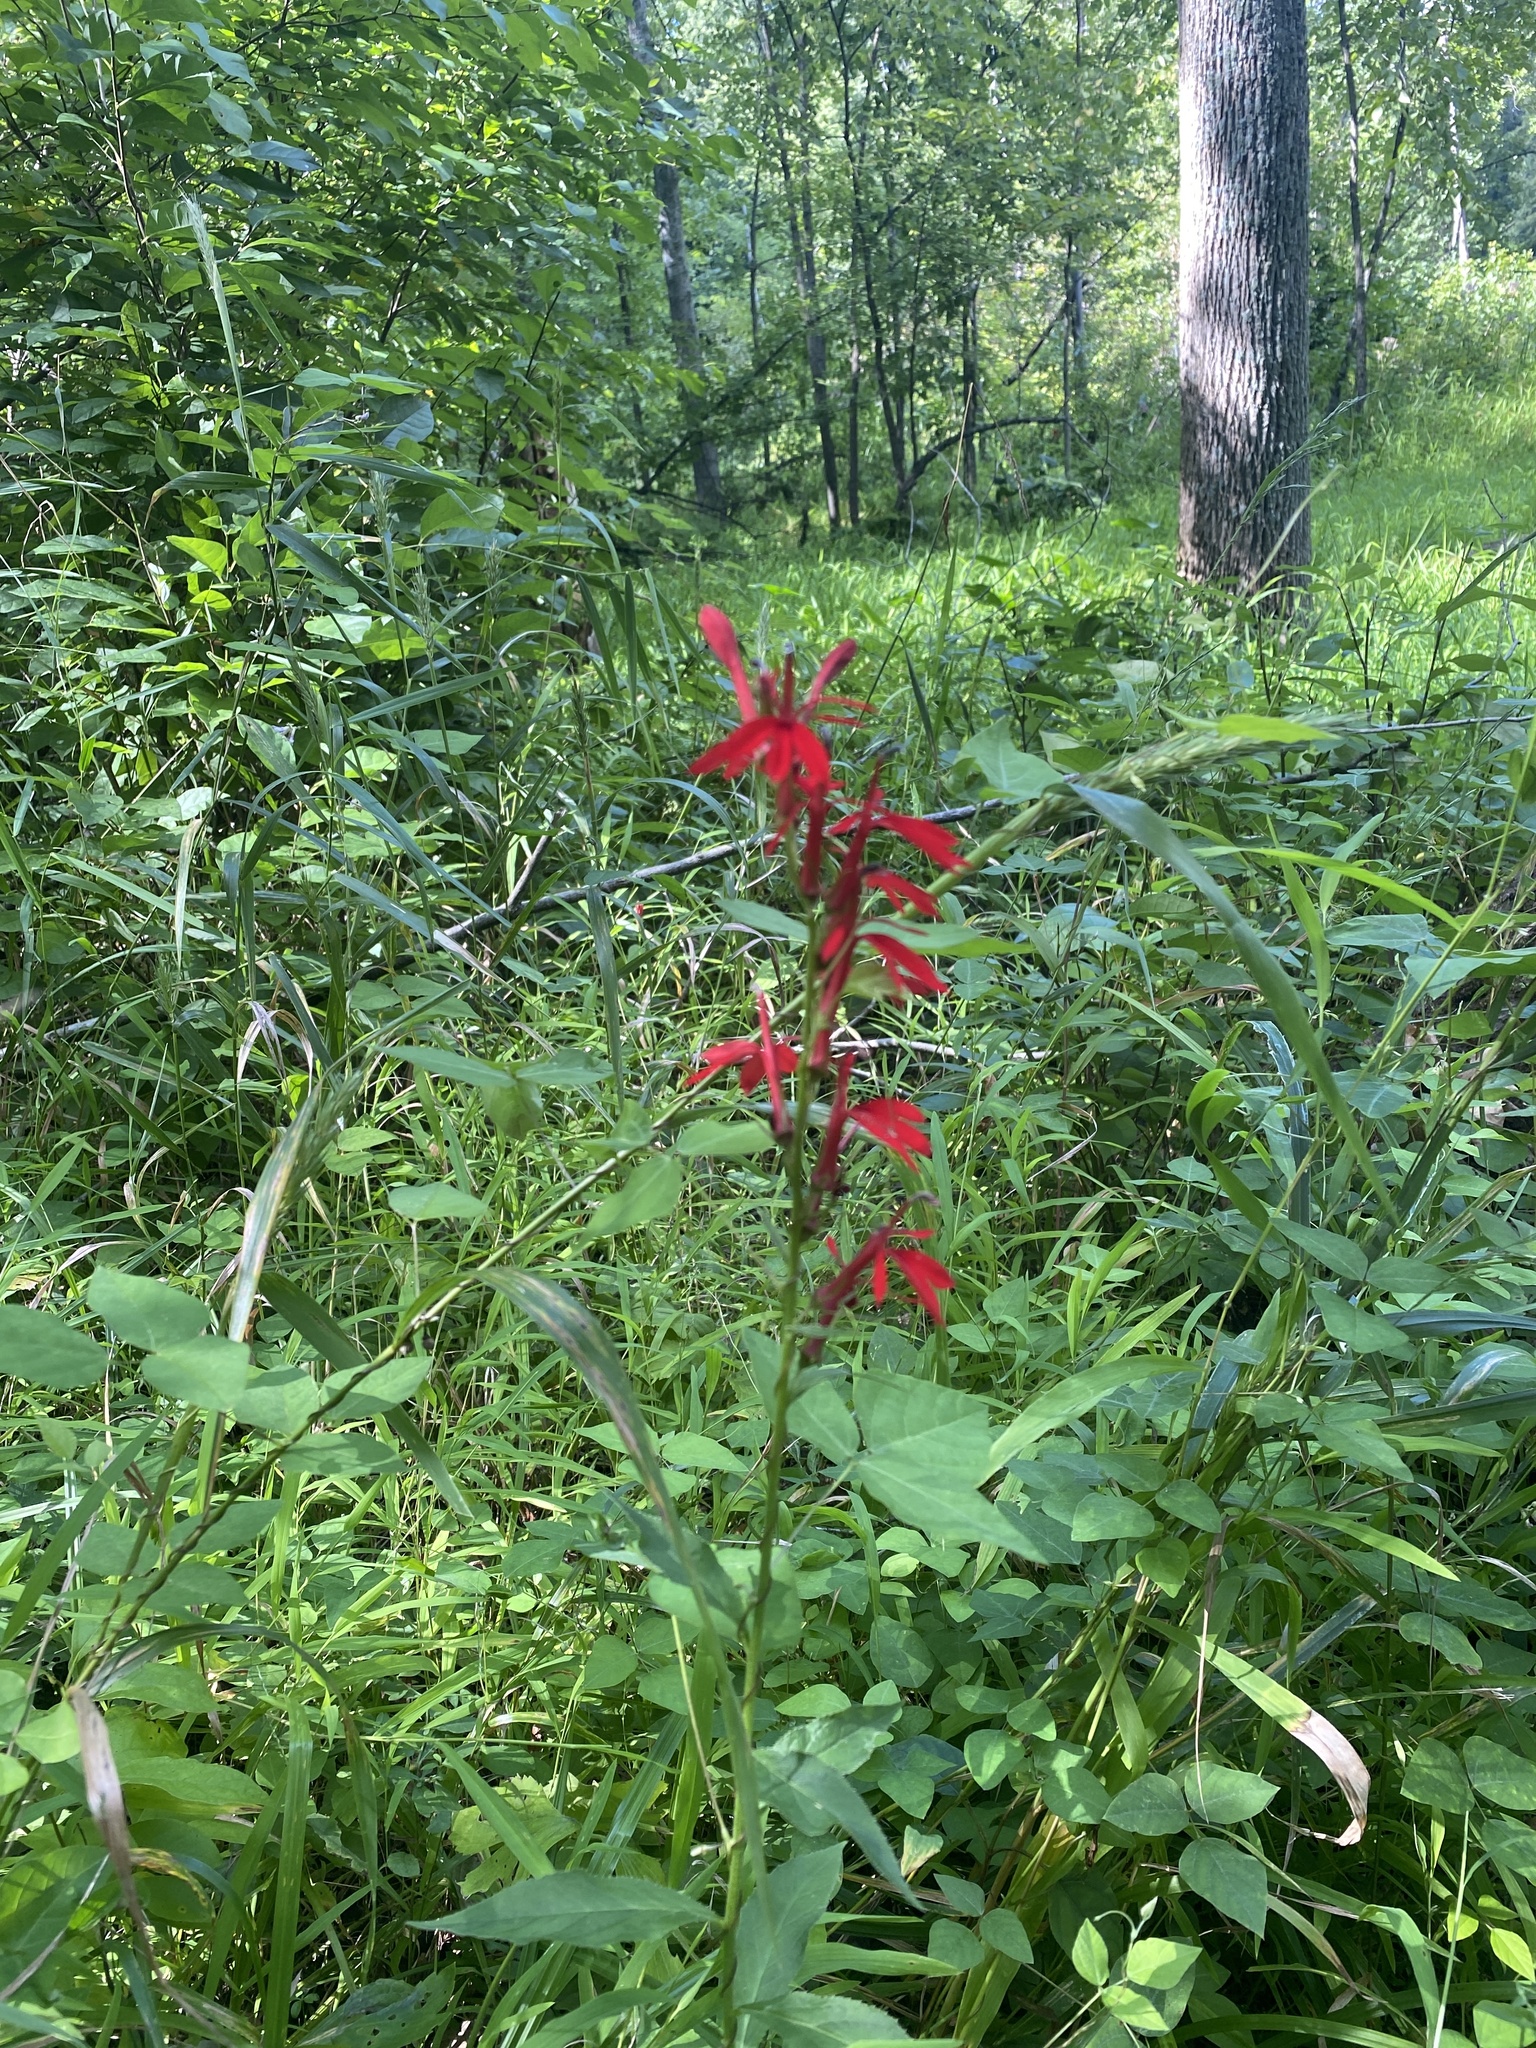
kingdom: Plantae
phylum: Tracheophyta
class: Magnoliopsida
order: Asterales
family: Campanulaceae
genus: Lobelia
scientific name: Lobelia cardinalis
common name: Cardinal flower
